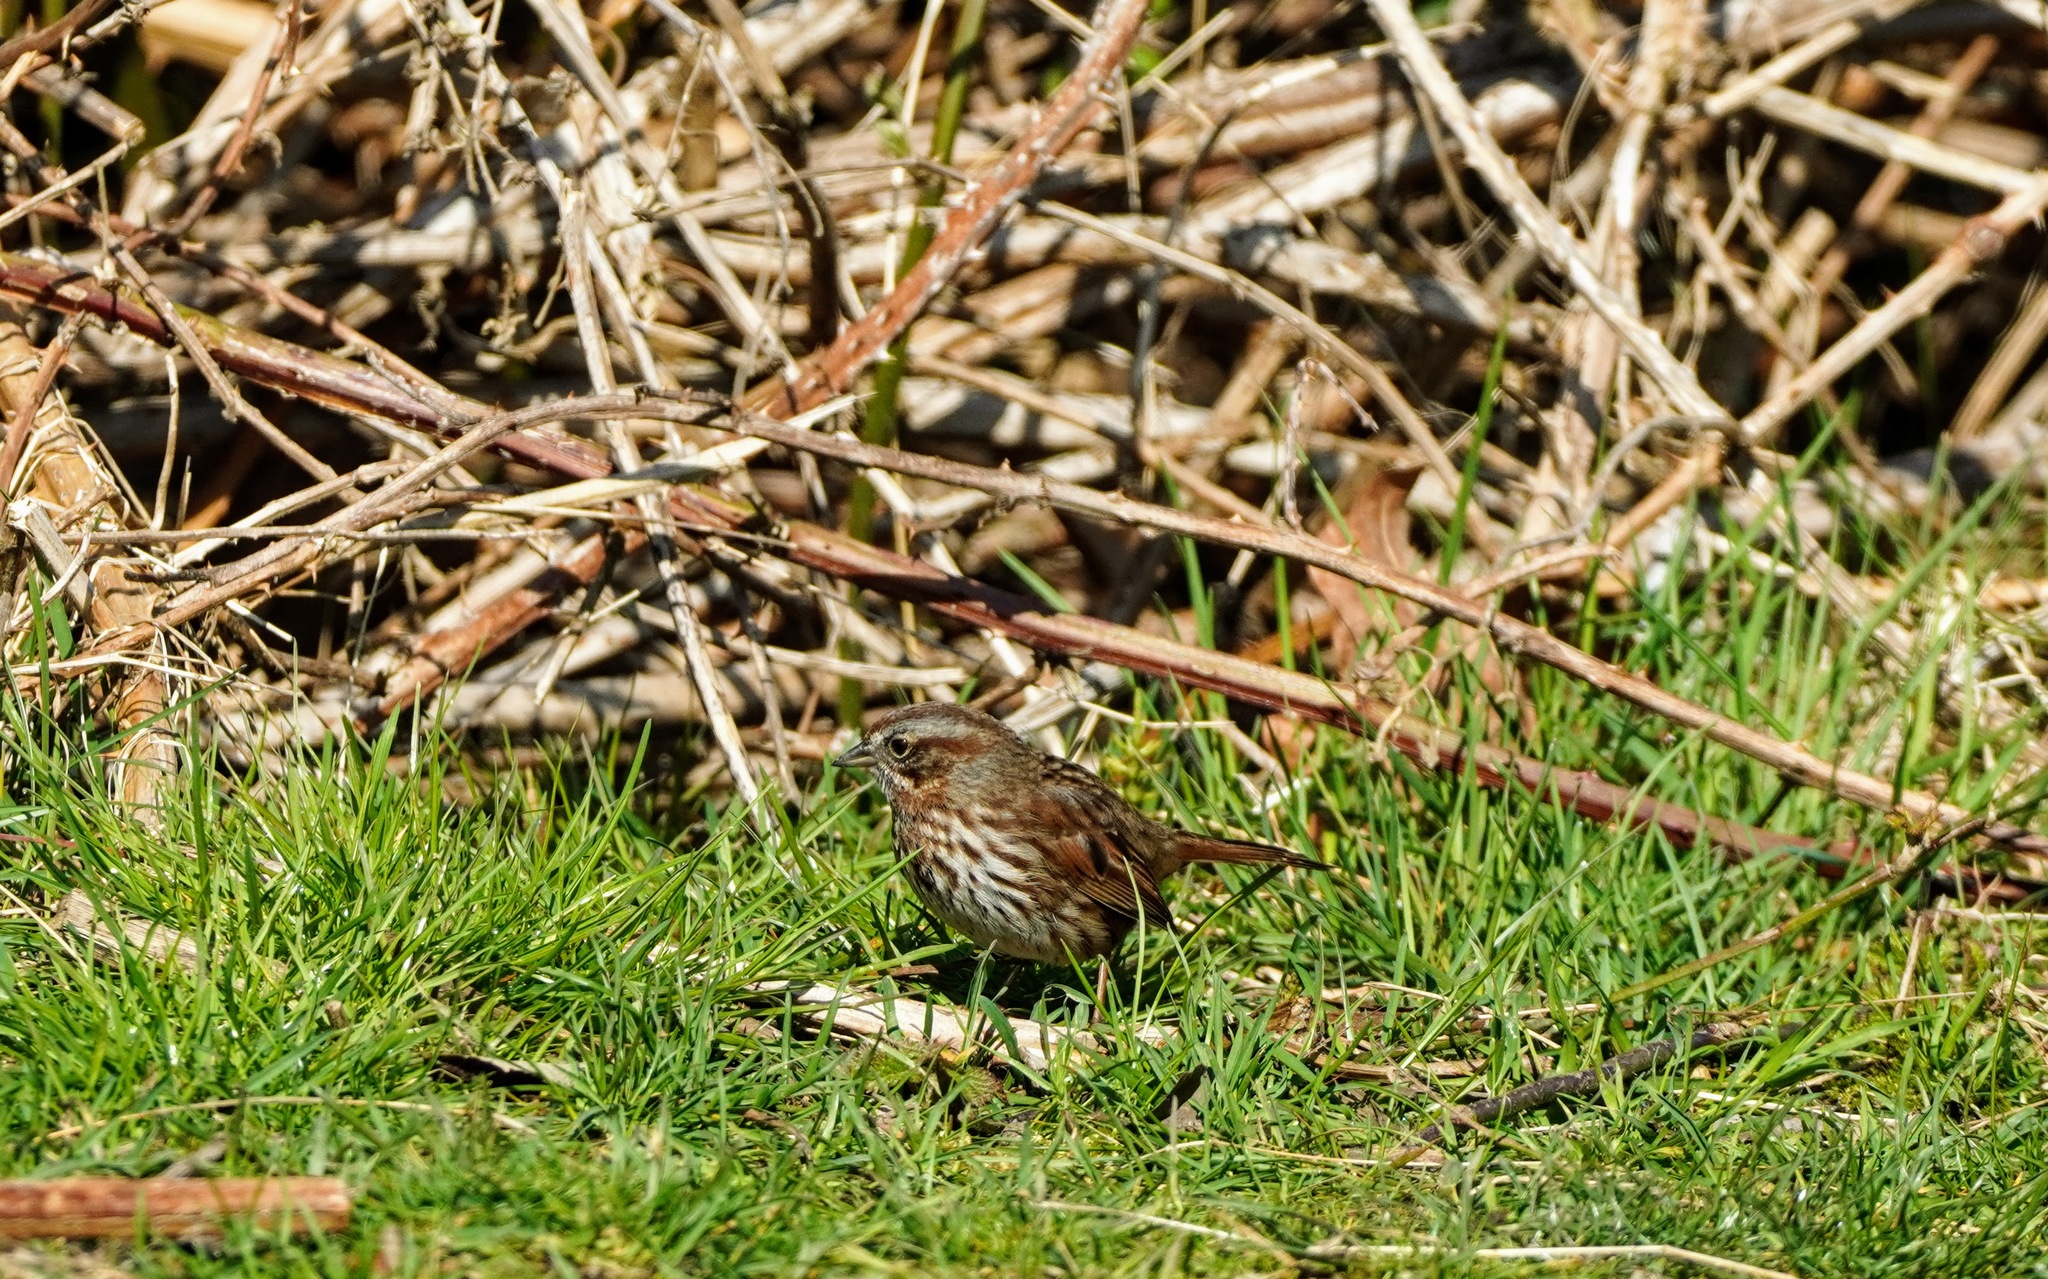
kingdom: Animalia
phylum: Chordata
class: Aves
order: Passeriformes
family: Passerellidae
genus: Melospiza
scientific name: Melospiza melodia
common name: Song sparrow
